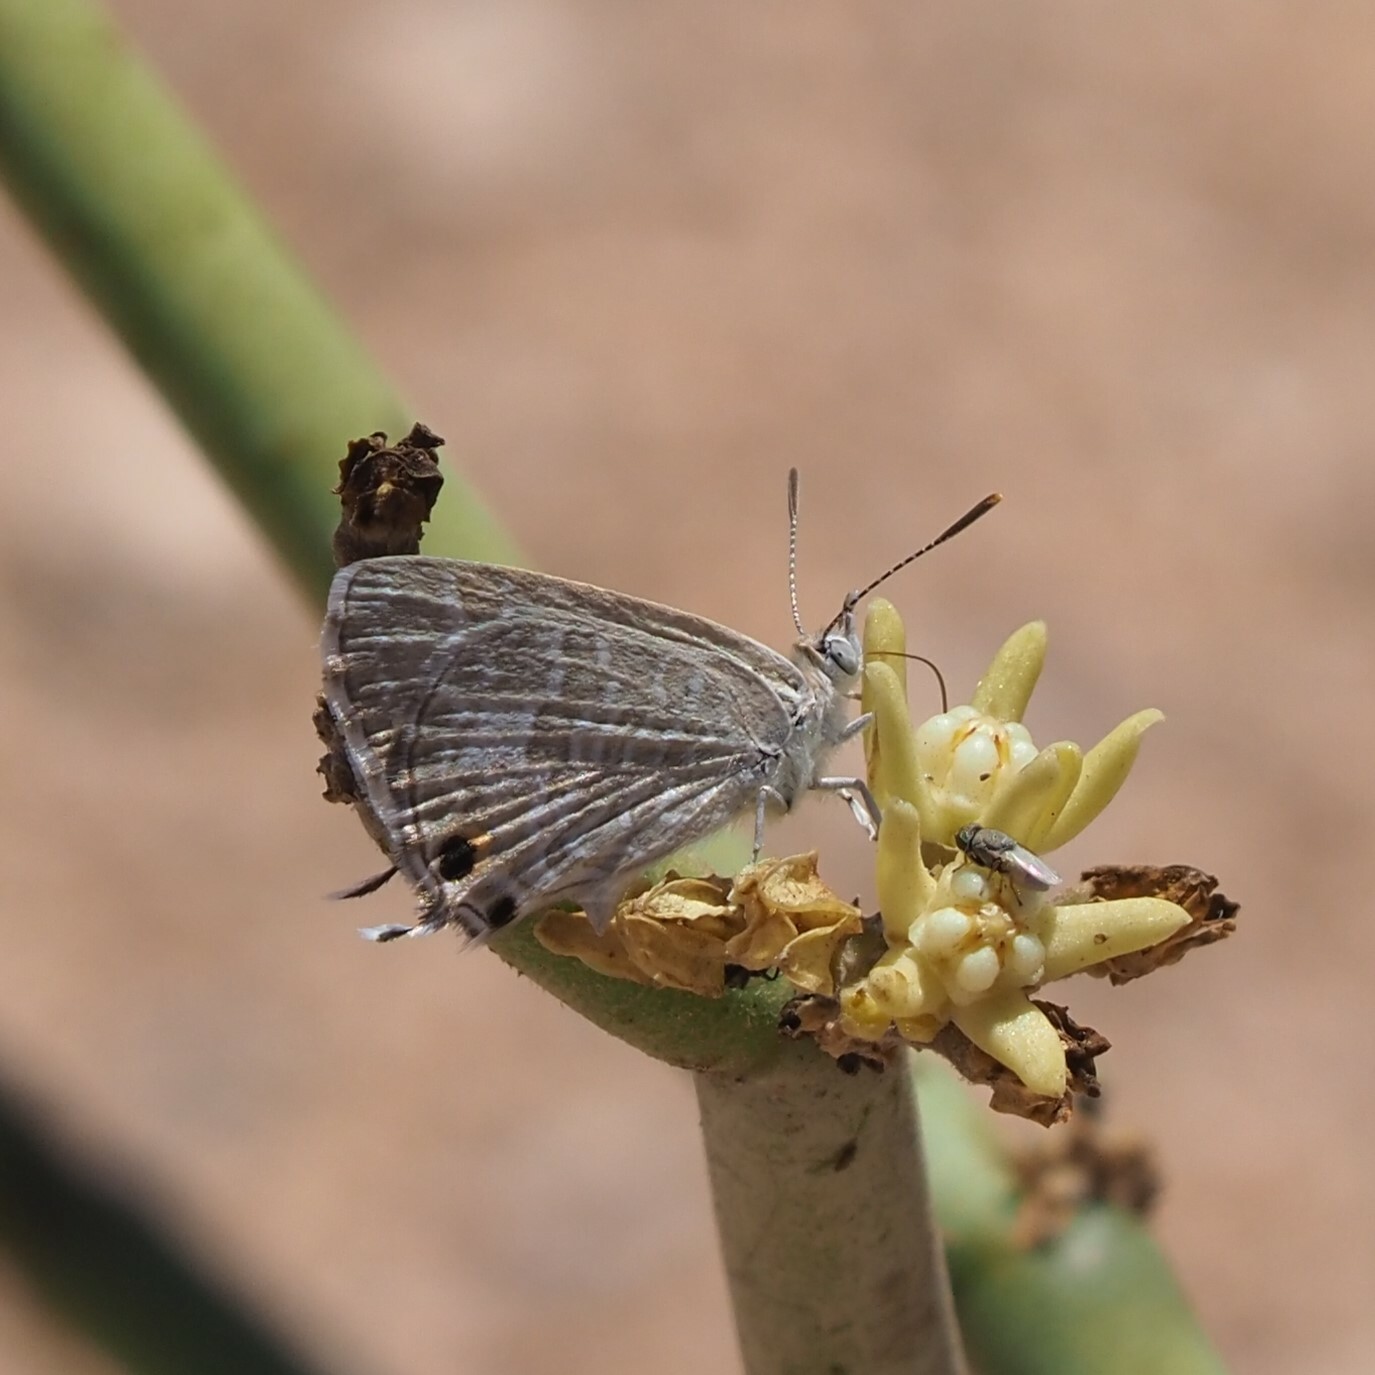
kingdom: Animalia
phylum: Arthropoda
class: Insecta
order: Lepidoptera
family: Lycaenidae
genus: Theclinesthes
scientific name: Theclinesthes miskini
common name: Wattle blue
